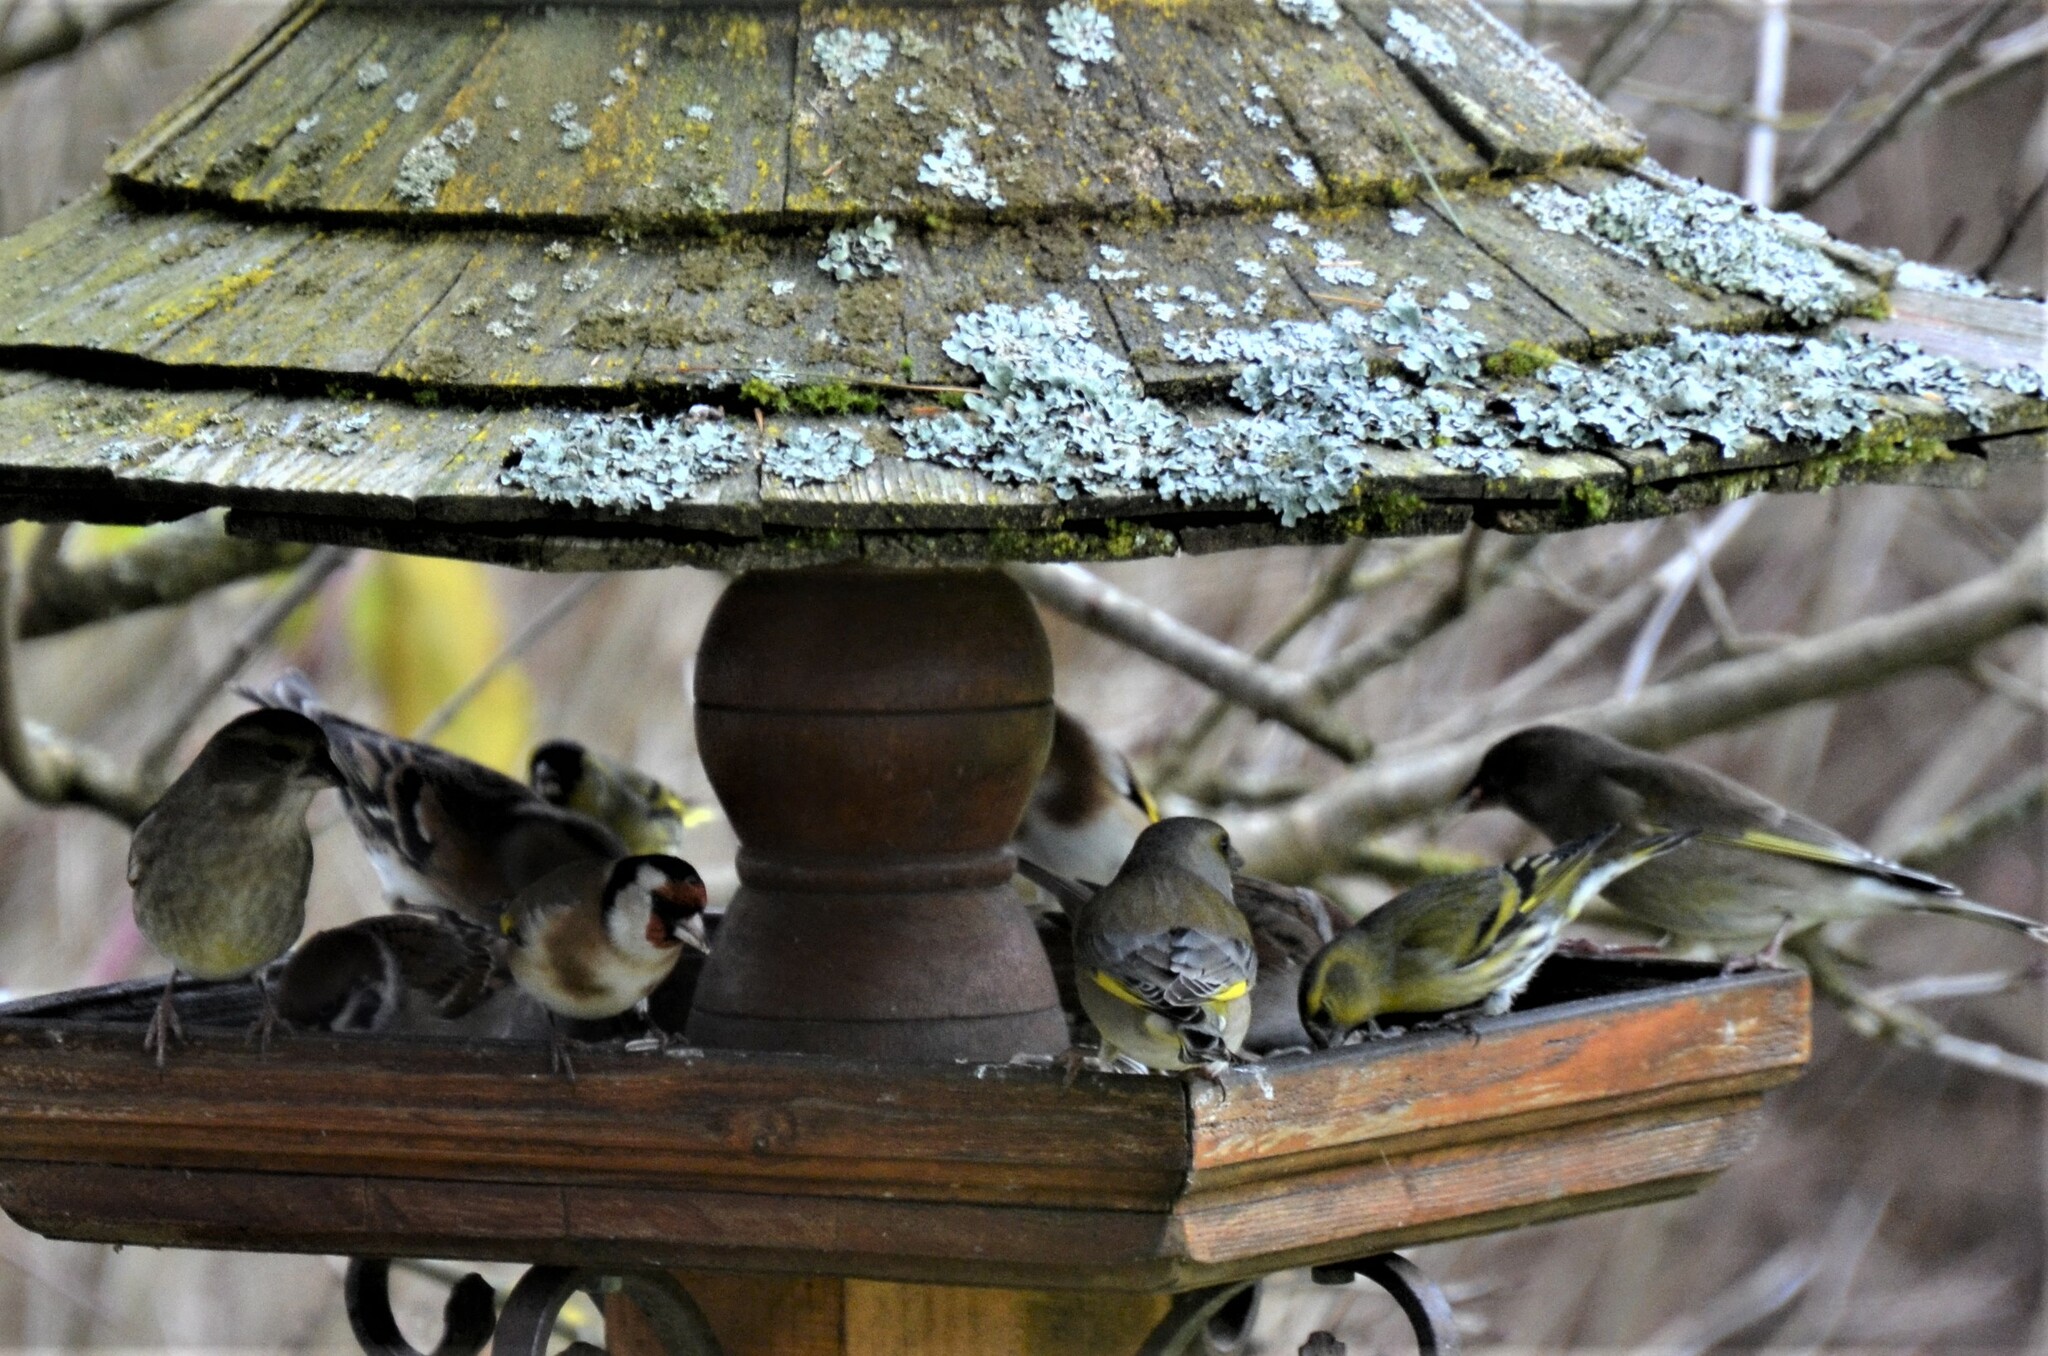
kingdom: Animalia
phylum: Chordata
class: Aves
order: Passeriformes
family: Fringillidae
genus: Spinus
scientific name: Spinus spinus
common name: Eurasian siskin
